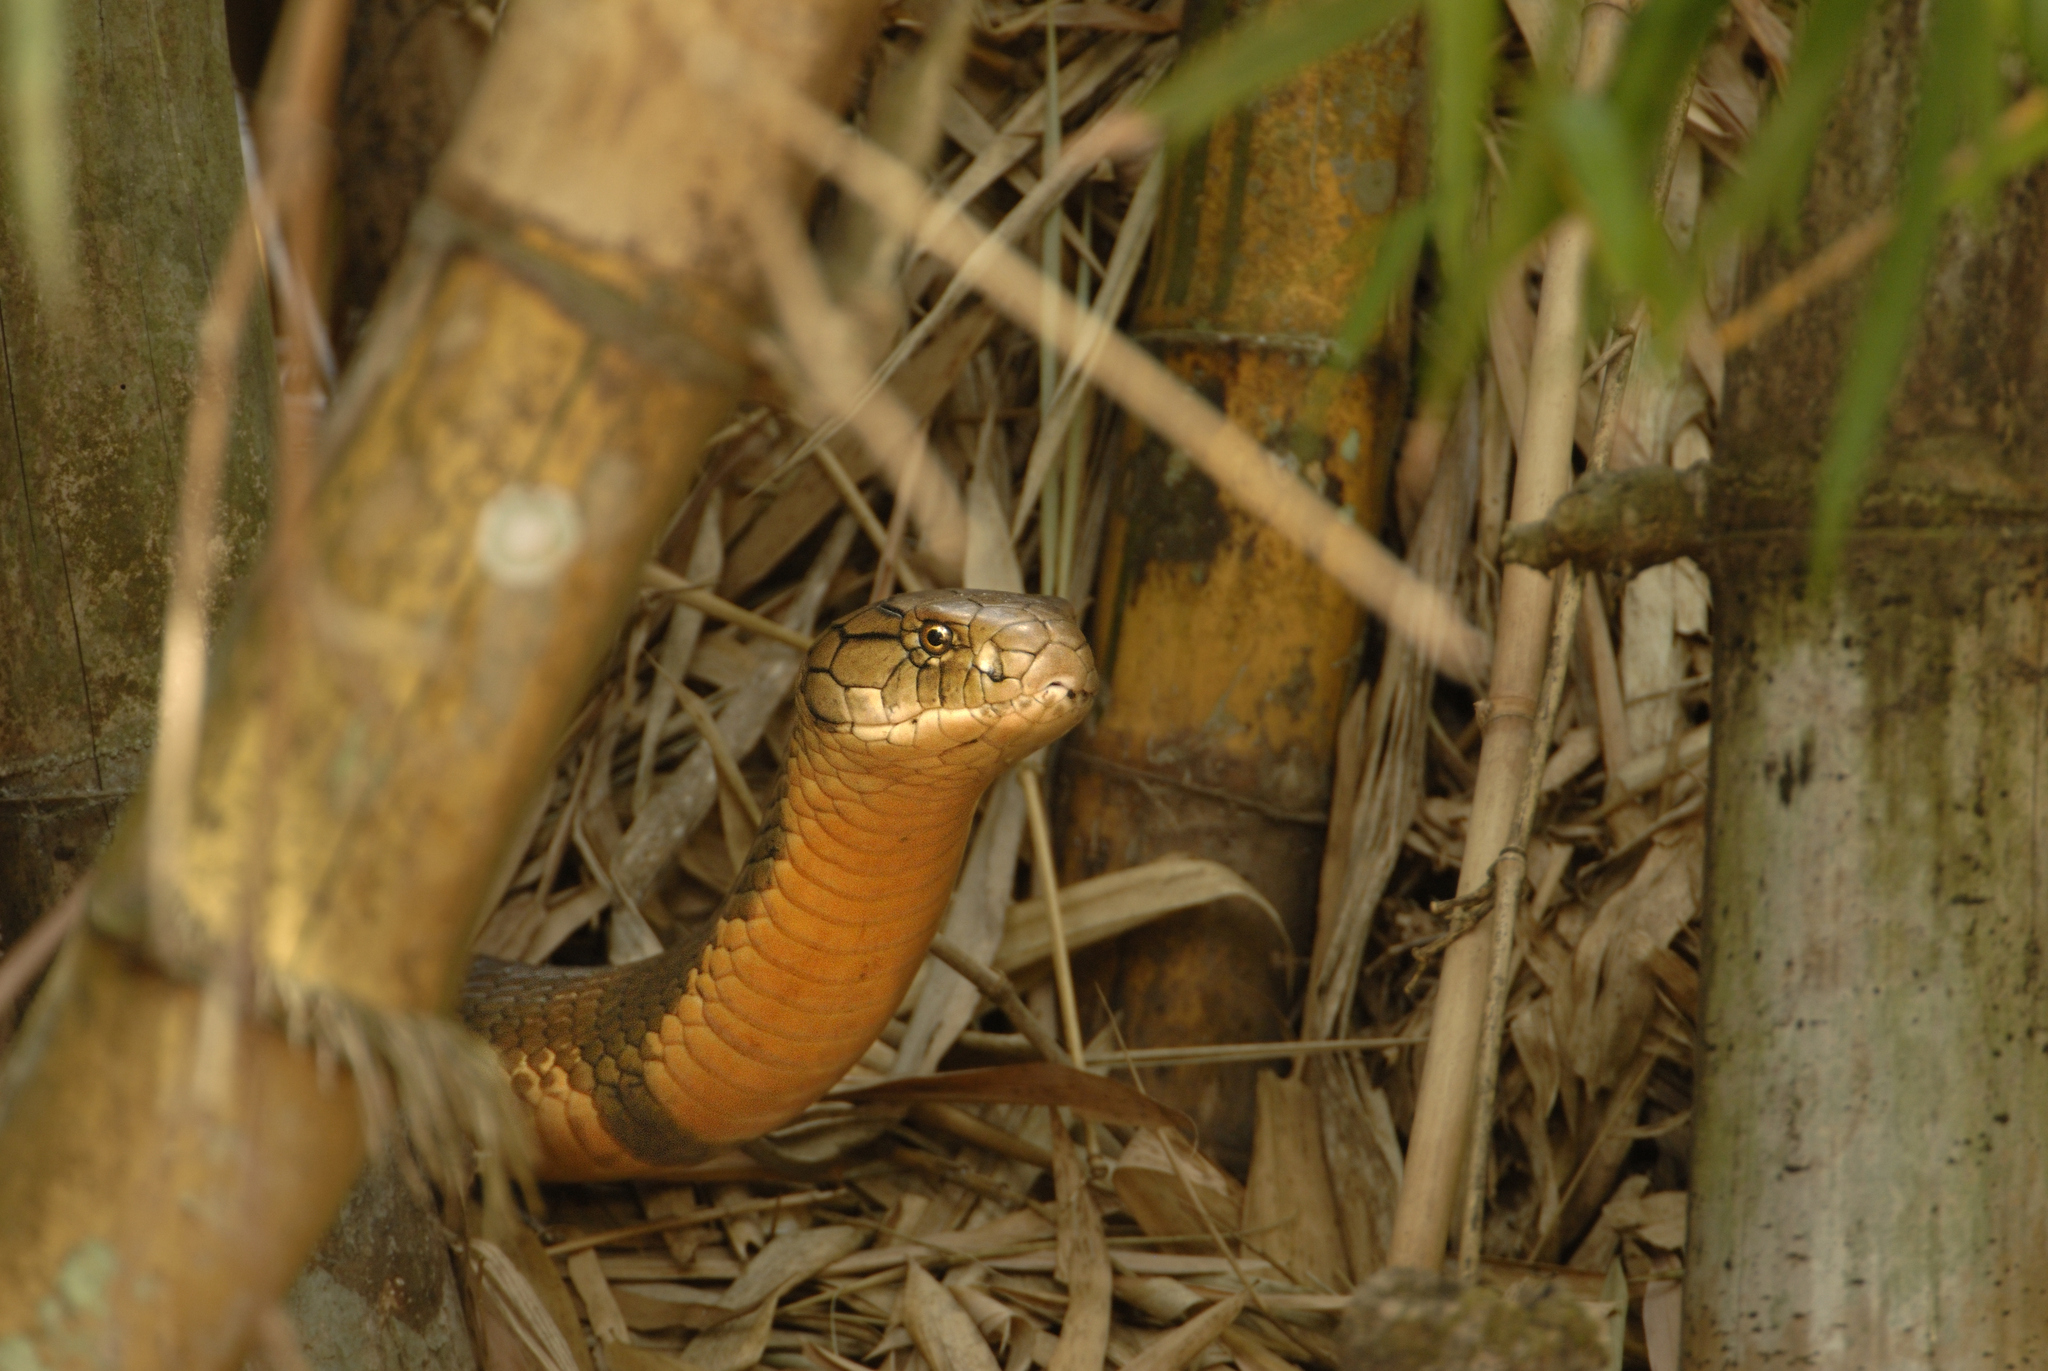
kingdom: Animalia
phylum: Chordata
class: Squamata
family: Elapidae
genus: Ophiophagus
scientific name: Ophiophagus hannah
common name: Hamadryad
